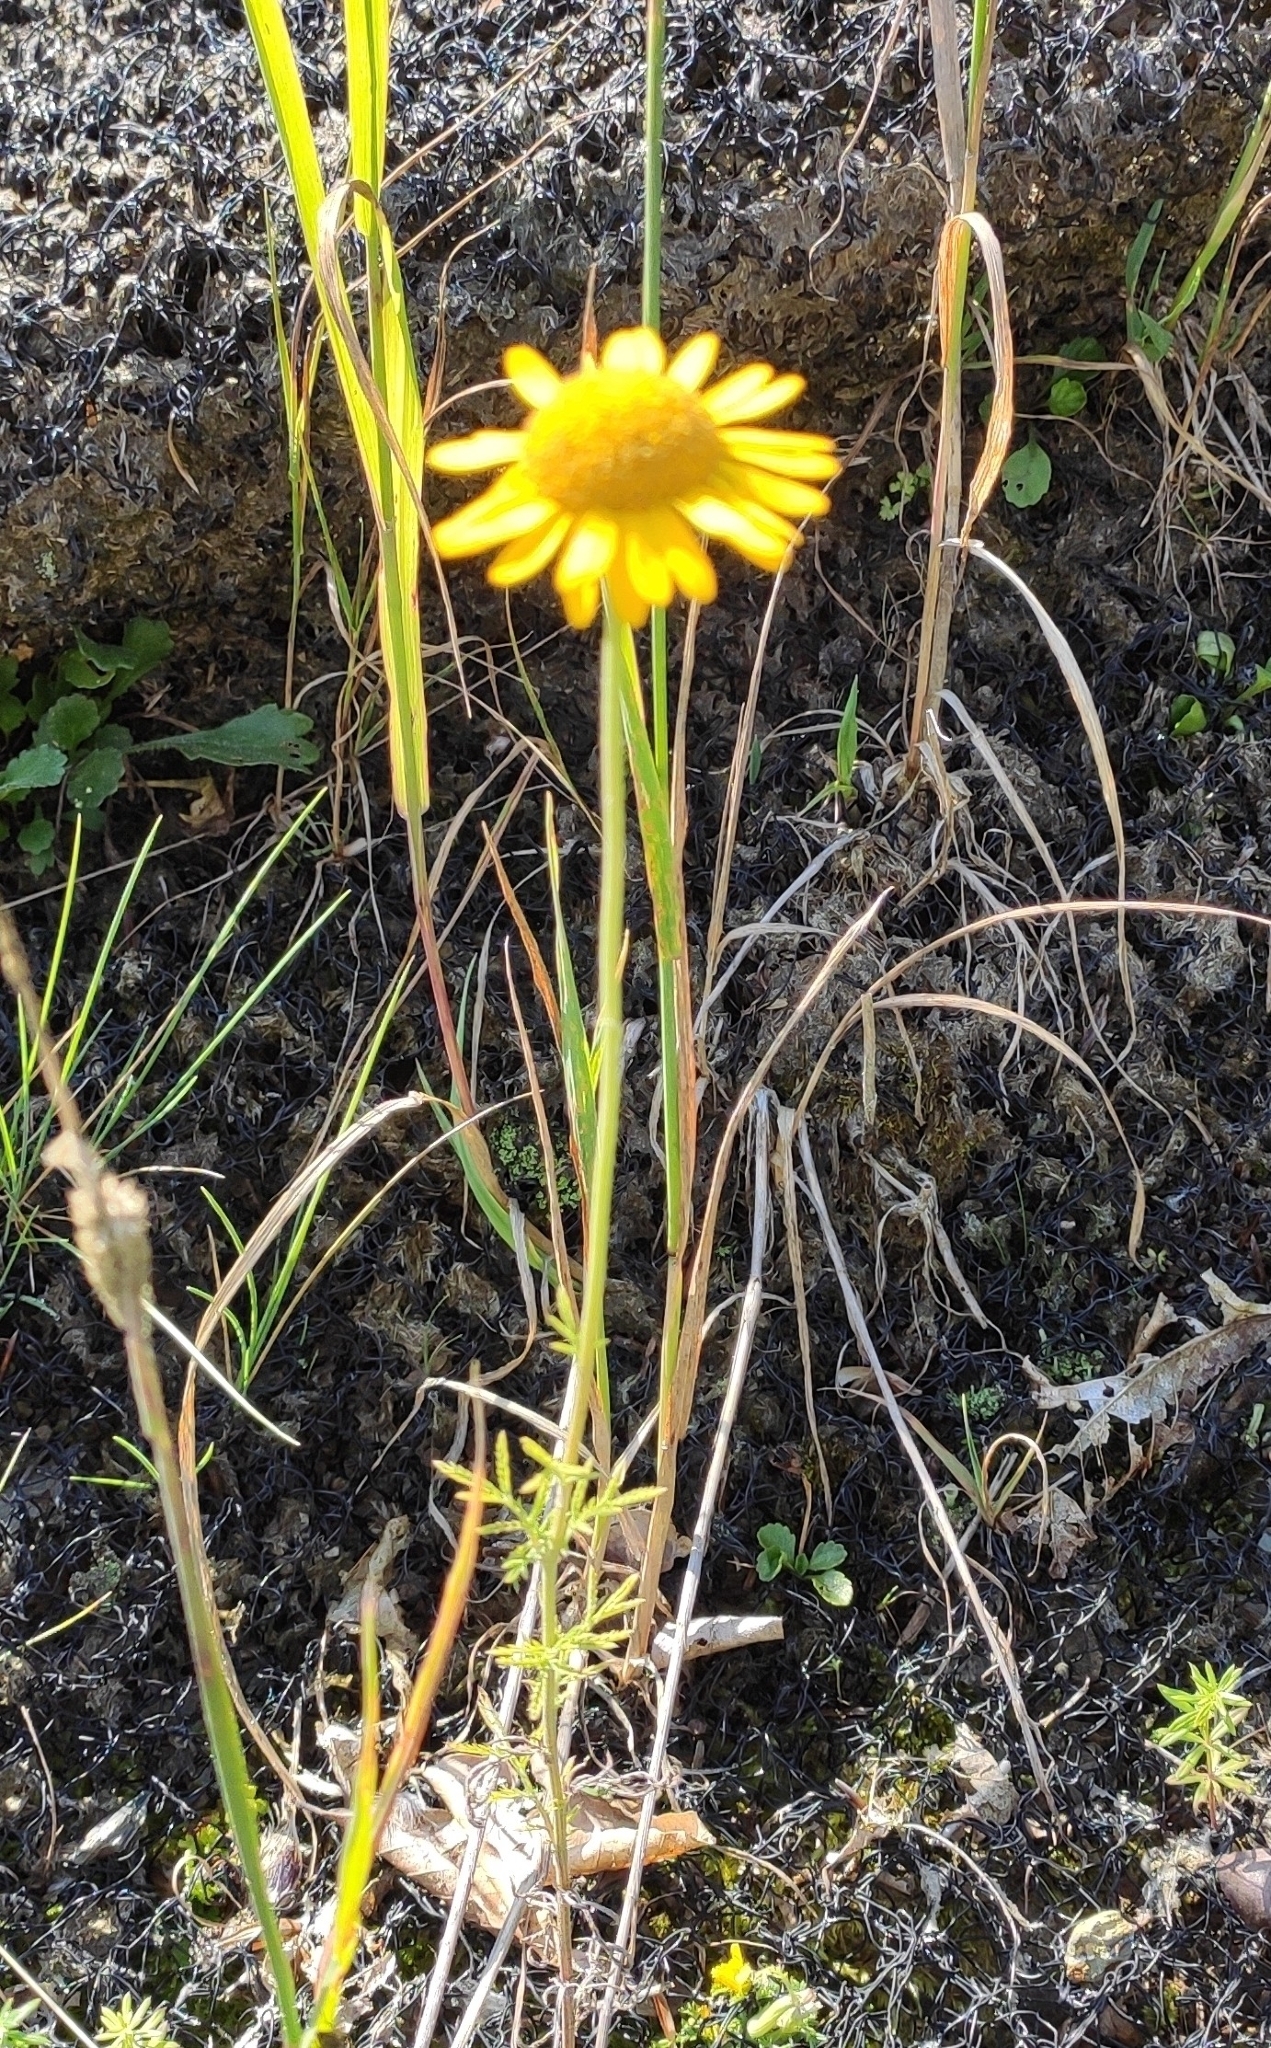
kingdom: Plantae
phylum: Tracheophyta
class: Magnoliopsida
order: Asterales
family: Asteraceae
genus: Cota
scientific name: Cota tinctoria
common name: Golden chamomile
